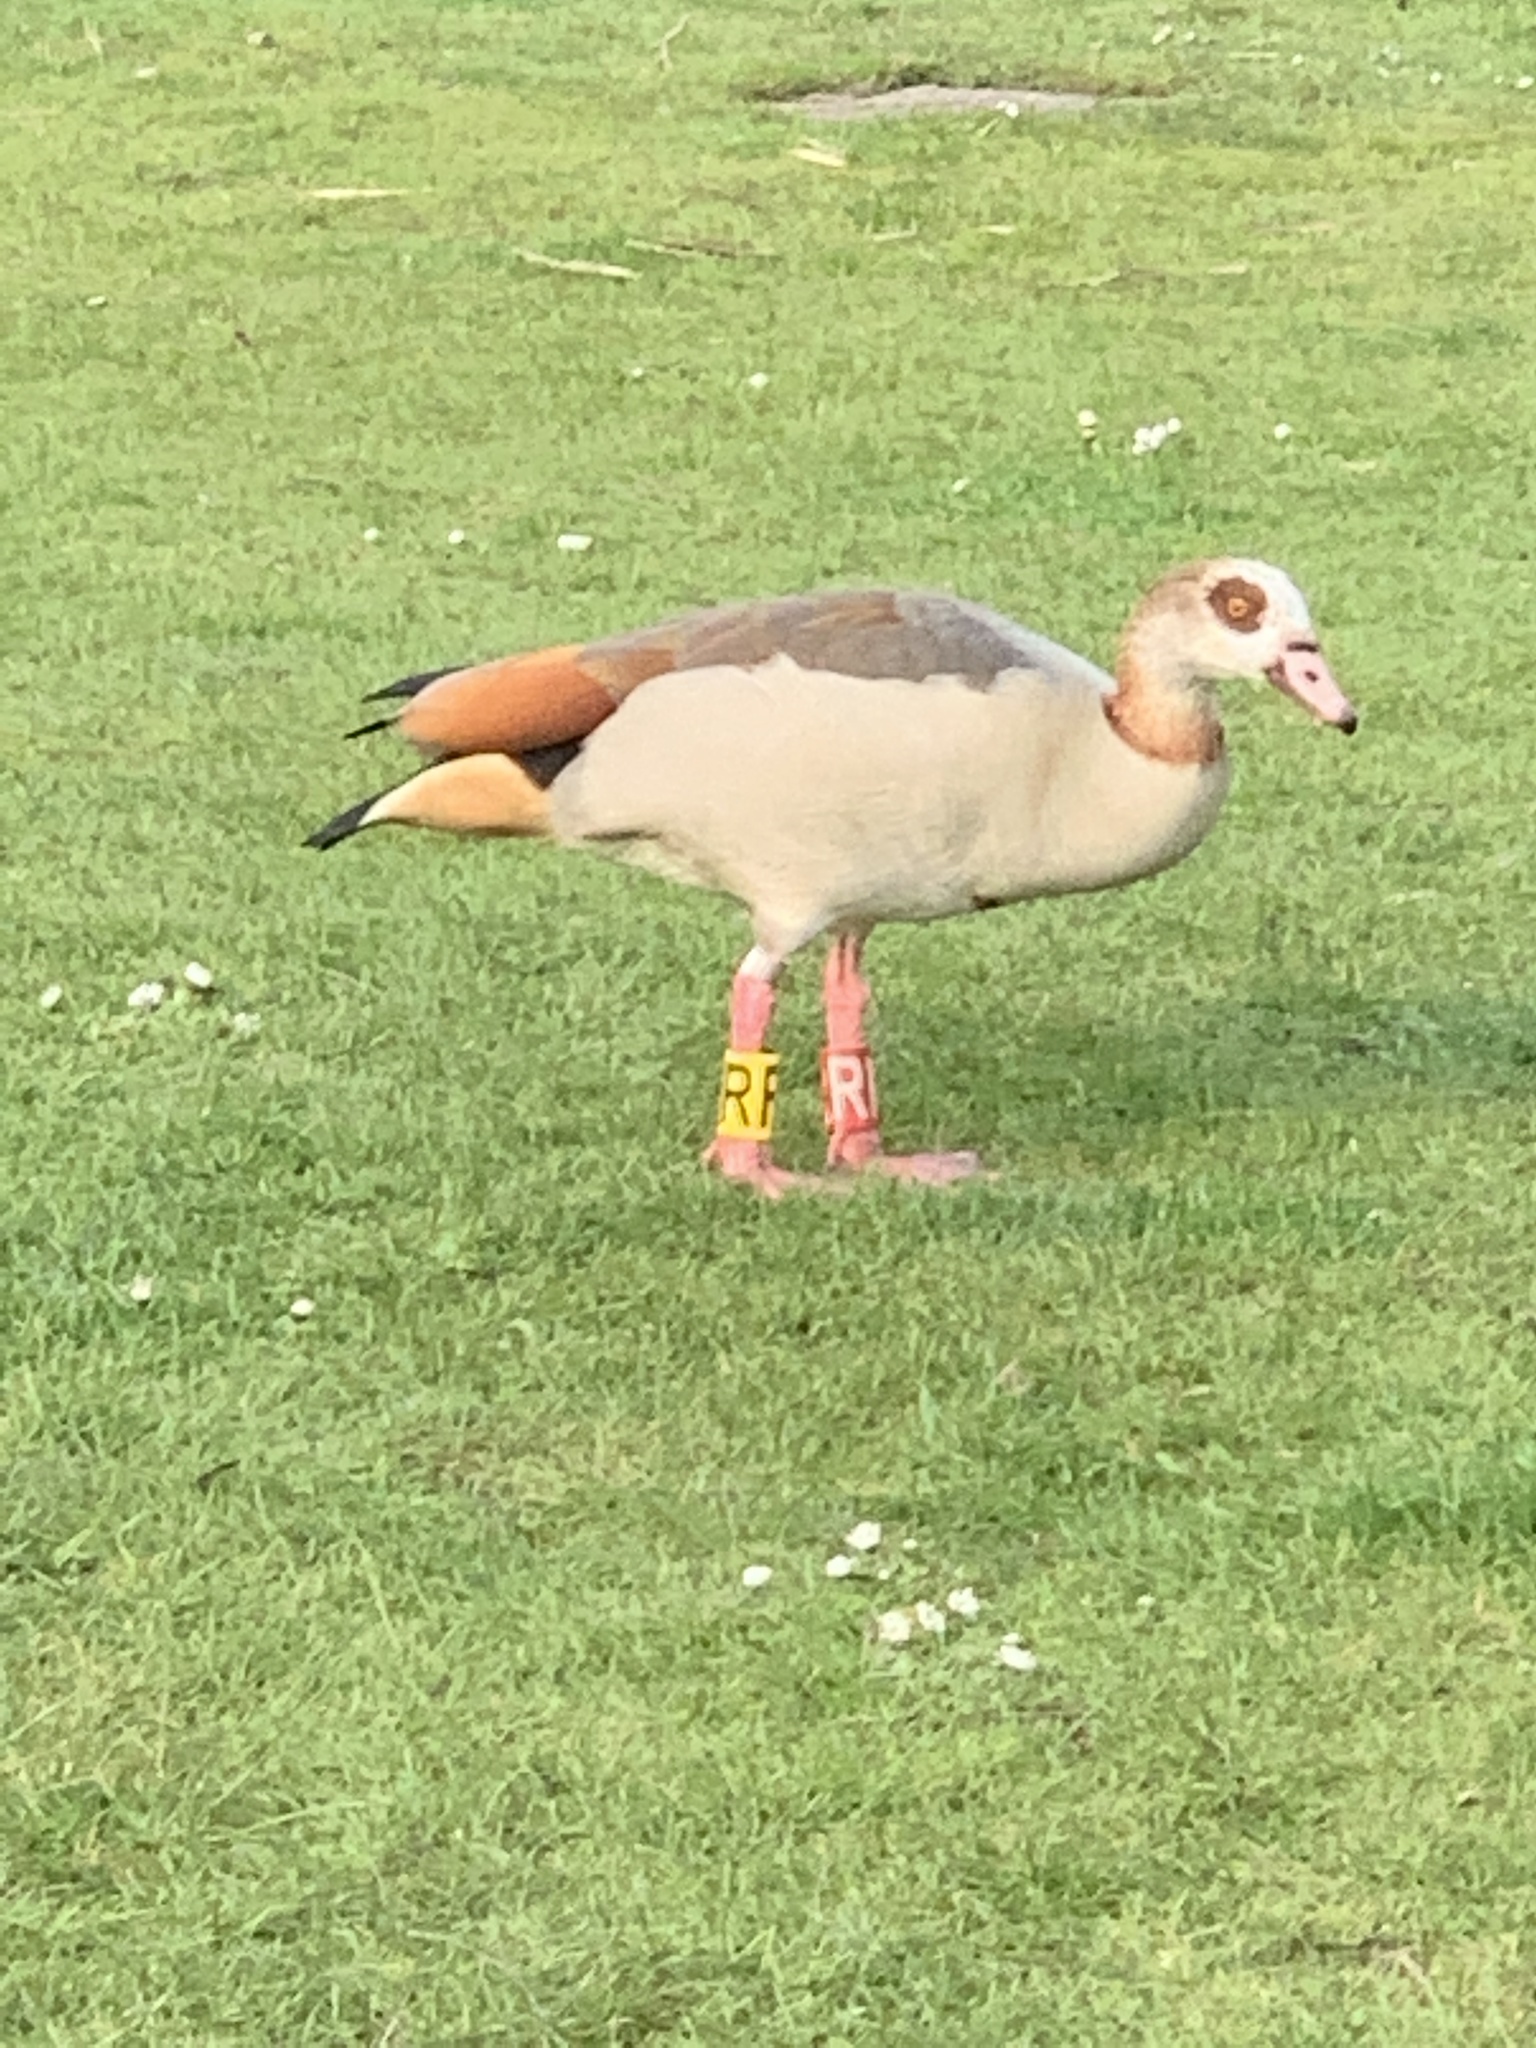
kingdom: Animalia
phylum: Chordata
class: Aves
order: Anseriformes
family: Anatidae
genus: Alopochen
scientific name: Alopochen aegyptiaca
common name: Egyptian goose
